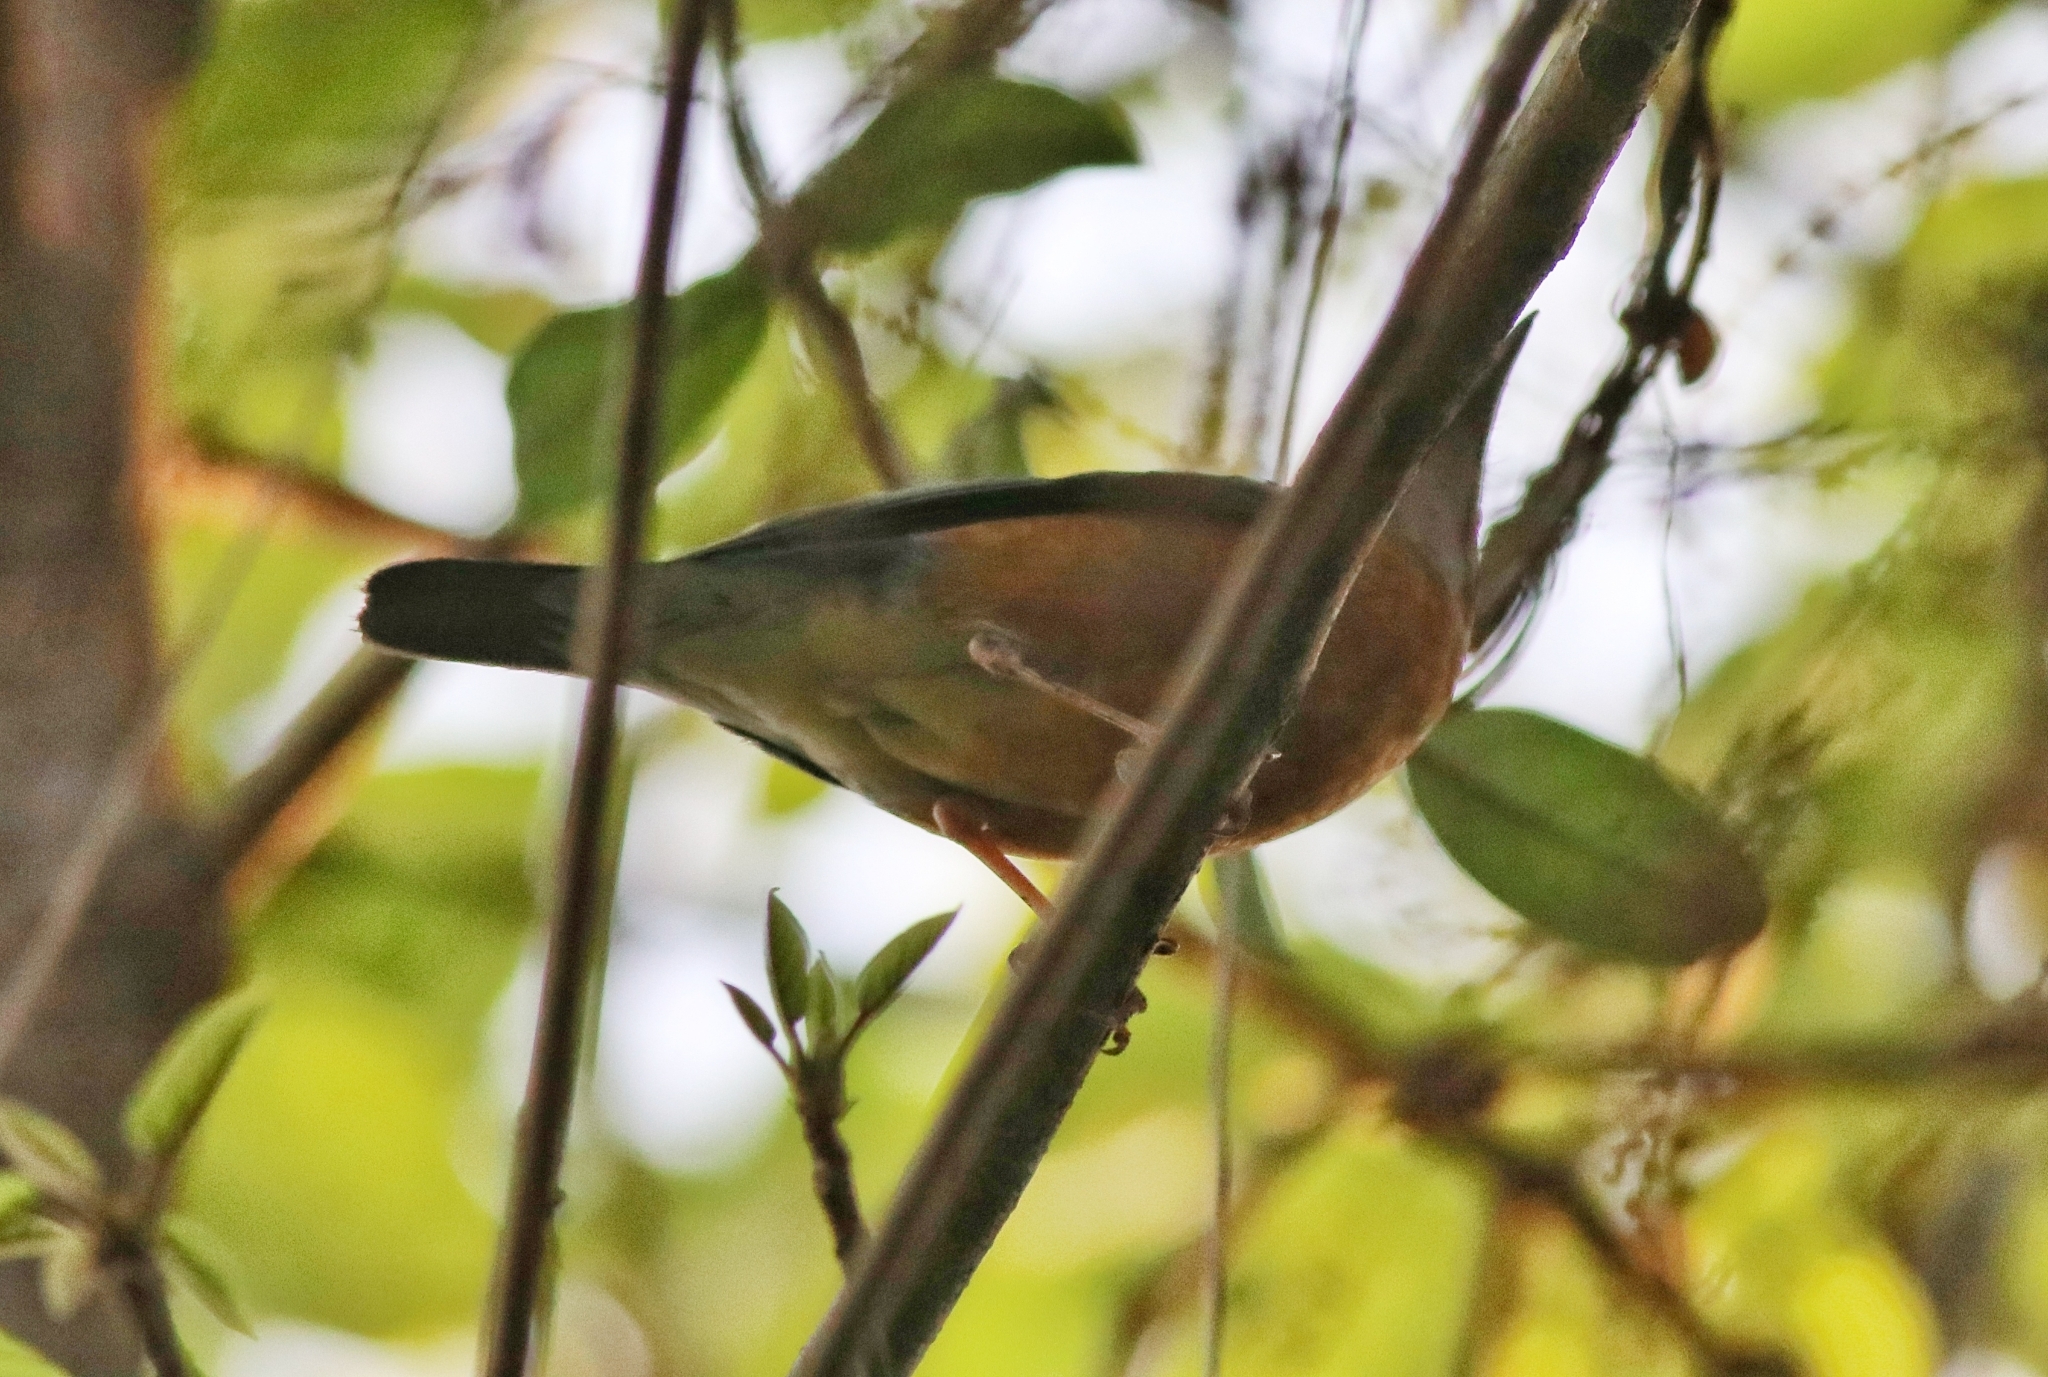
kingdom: Animalia
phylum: Chordata
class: Aves
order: Passeriformes
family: Turdidae
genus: Geokichla
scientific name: Geokichla citrina
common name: Orange-headed thrush
